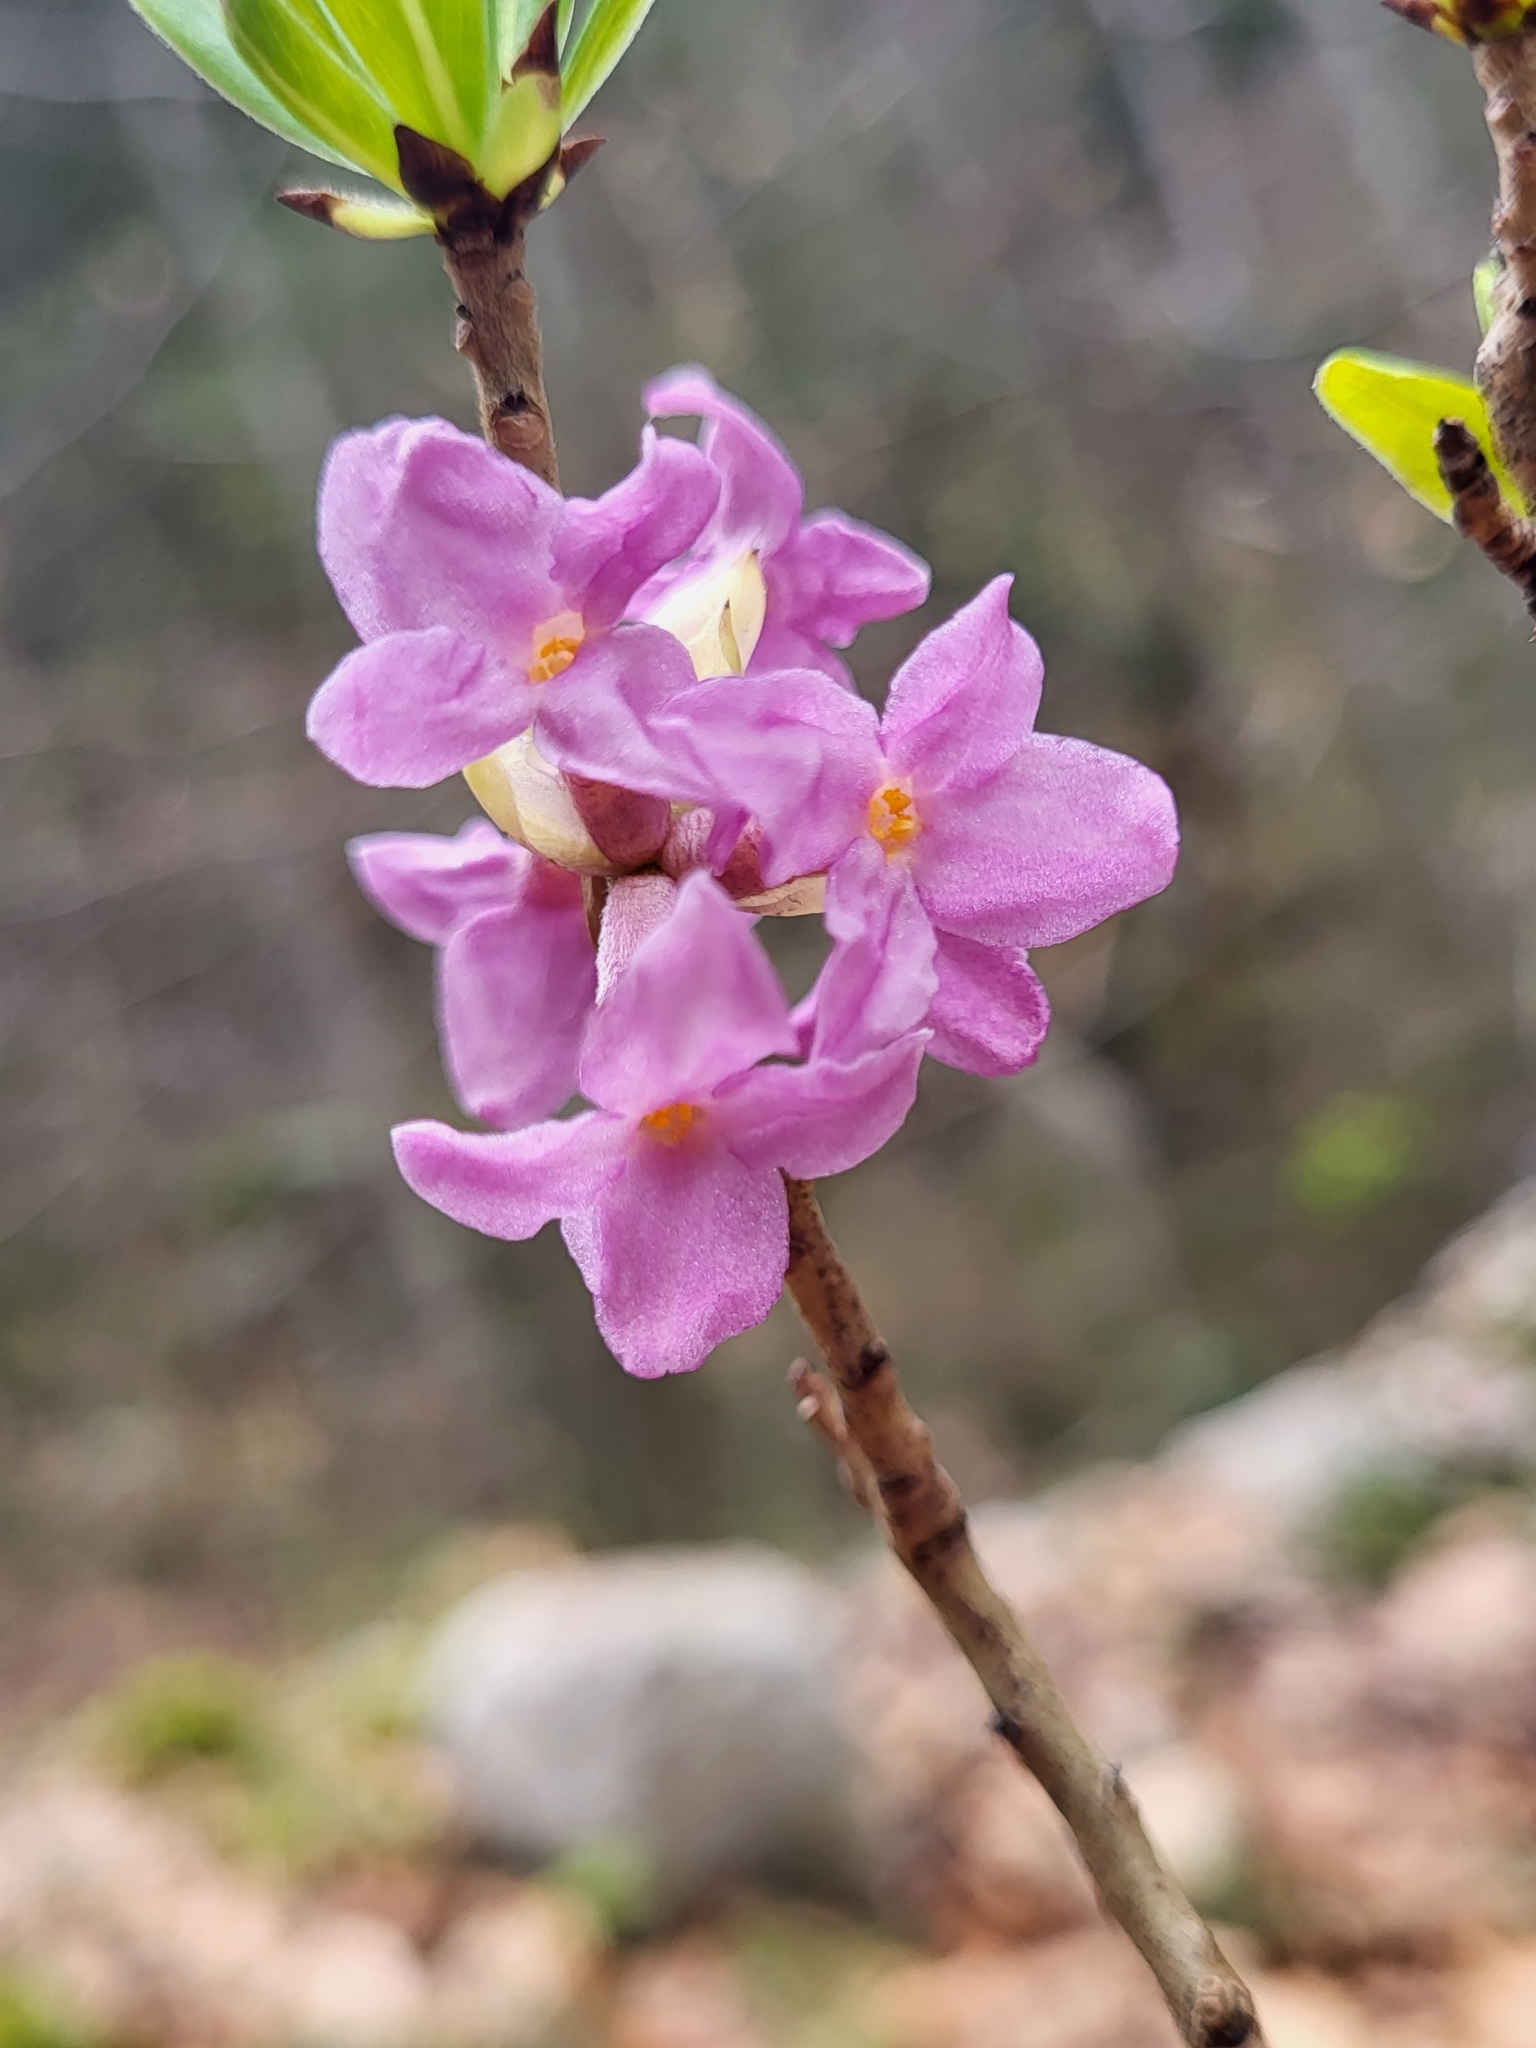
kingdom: Plantae
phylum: Tracheophyta
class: Magnoliopsida
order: Malvales
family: Thymelaeaceae
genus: Daphne
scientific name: Daphne mezereum
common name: Mezereon
